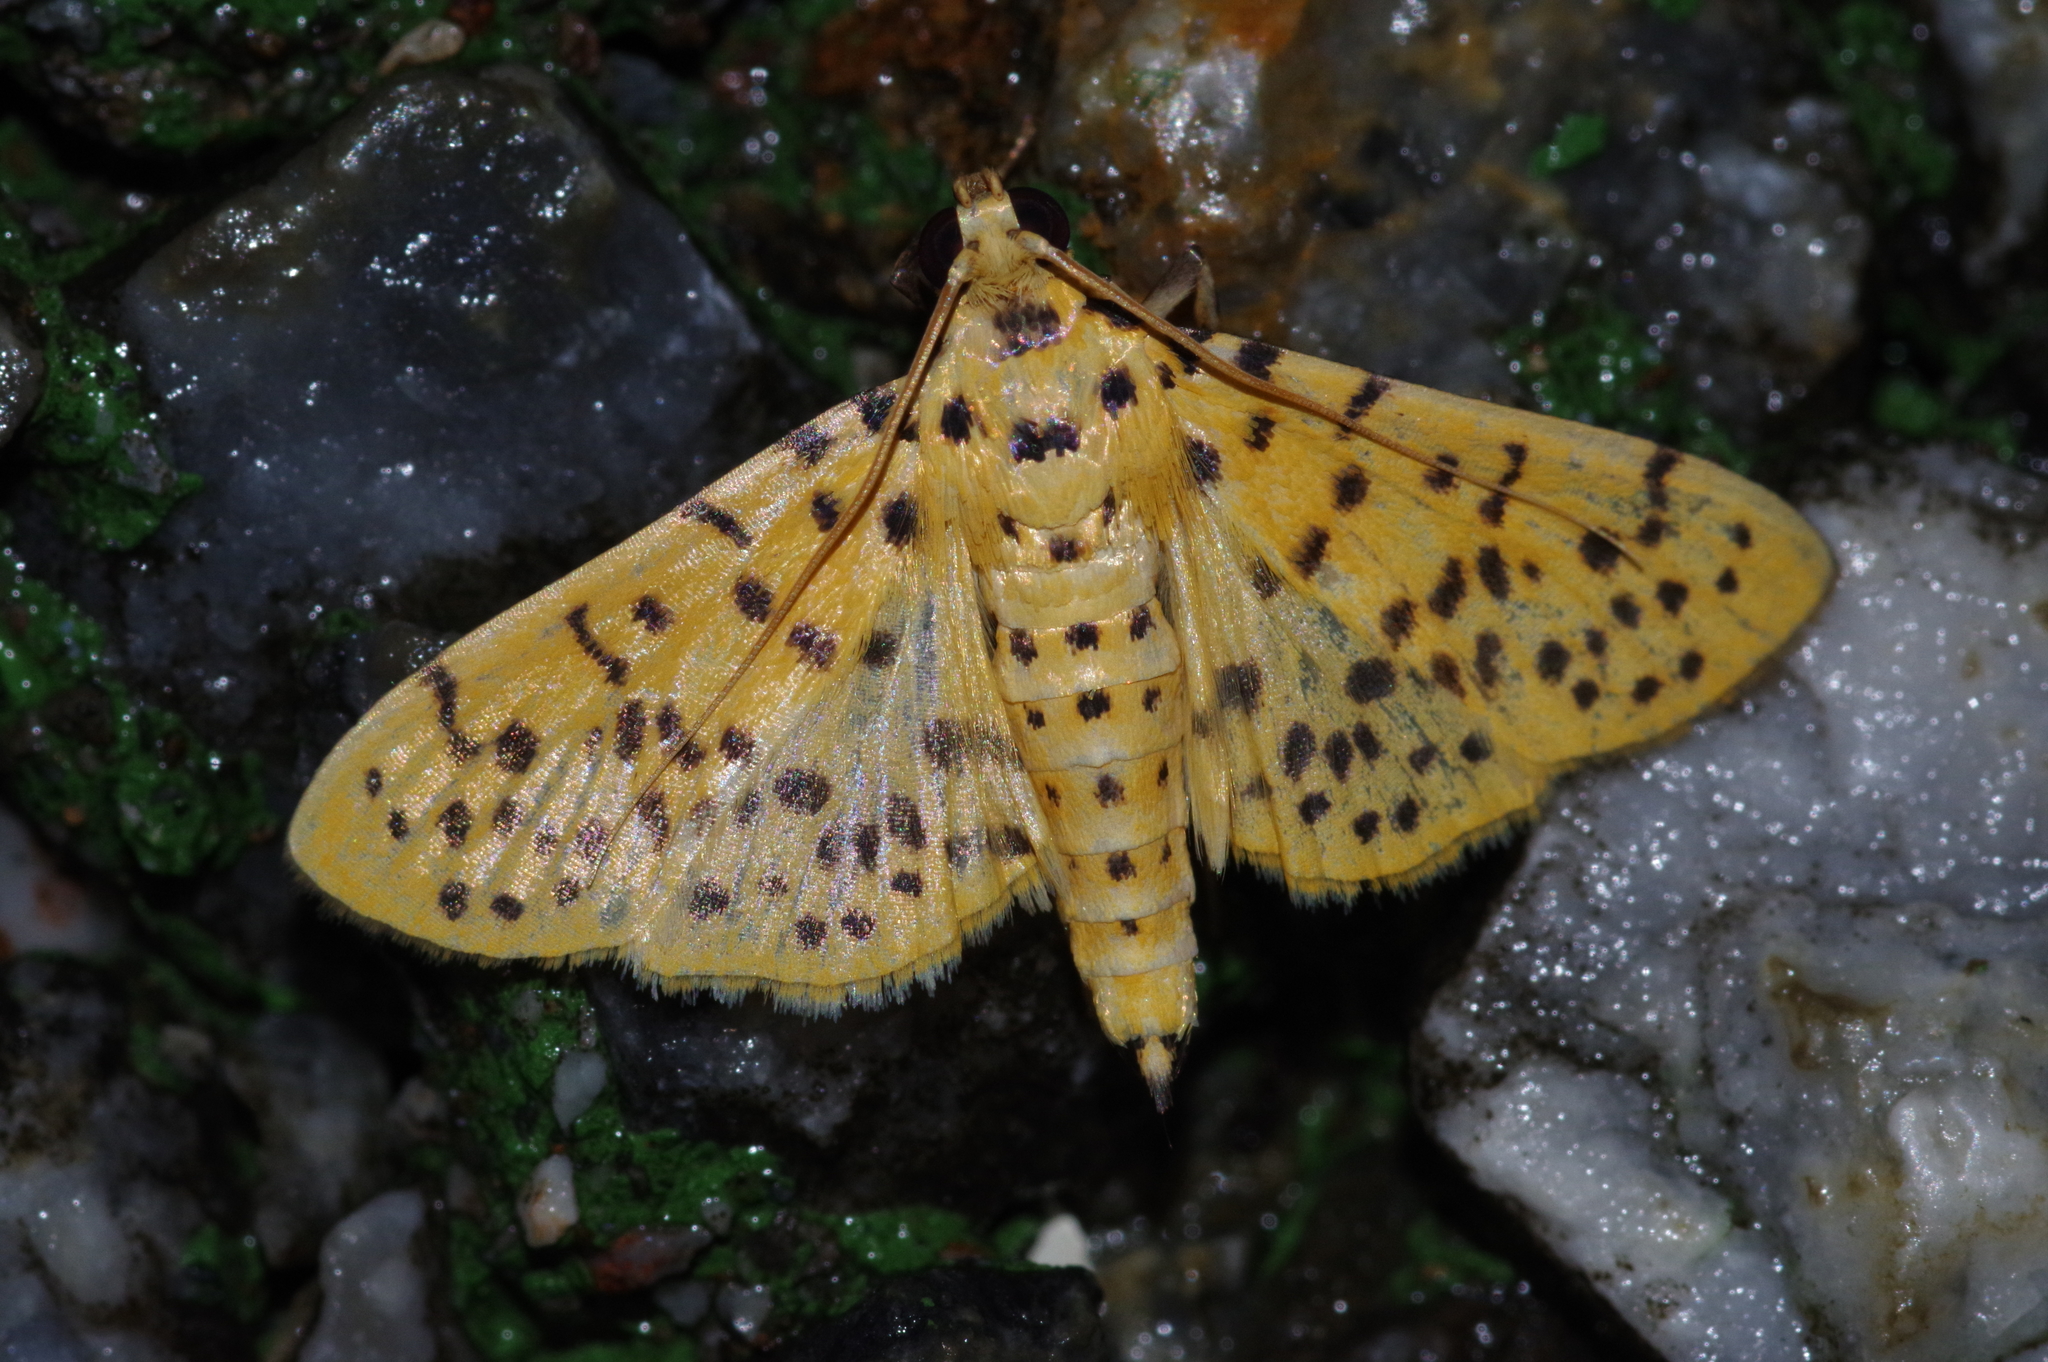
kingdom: Animalia
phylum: Arthropoda
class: Insecta
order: Lepidoptera
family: Crambidae
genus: Conogethes
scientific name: Conogethes punctiferalis
